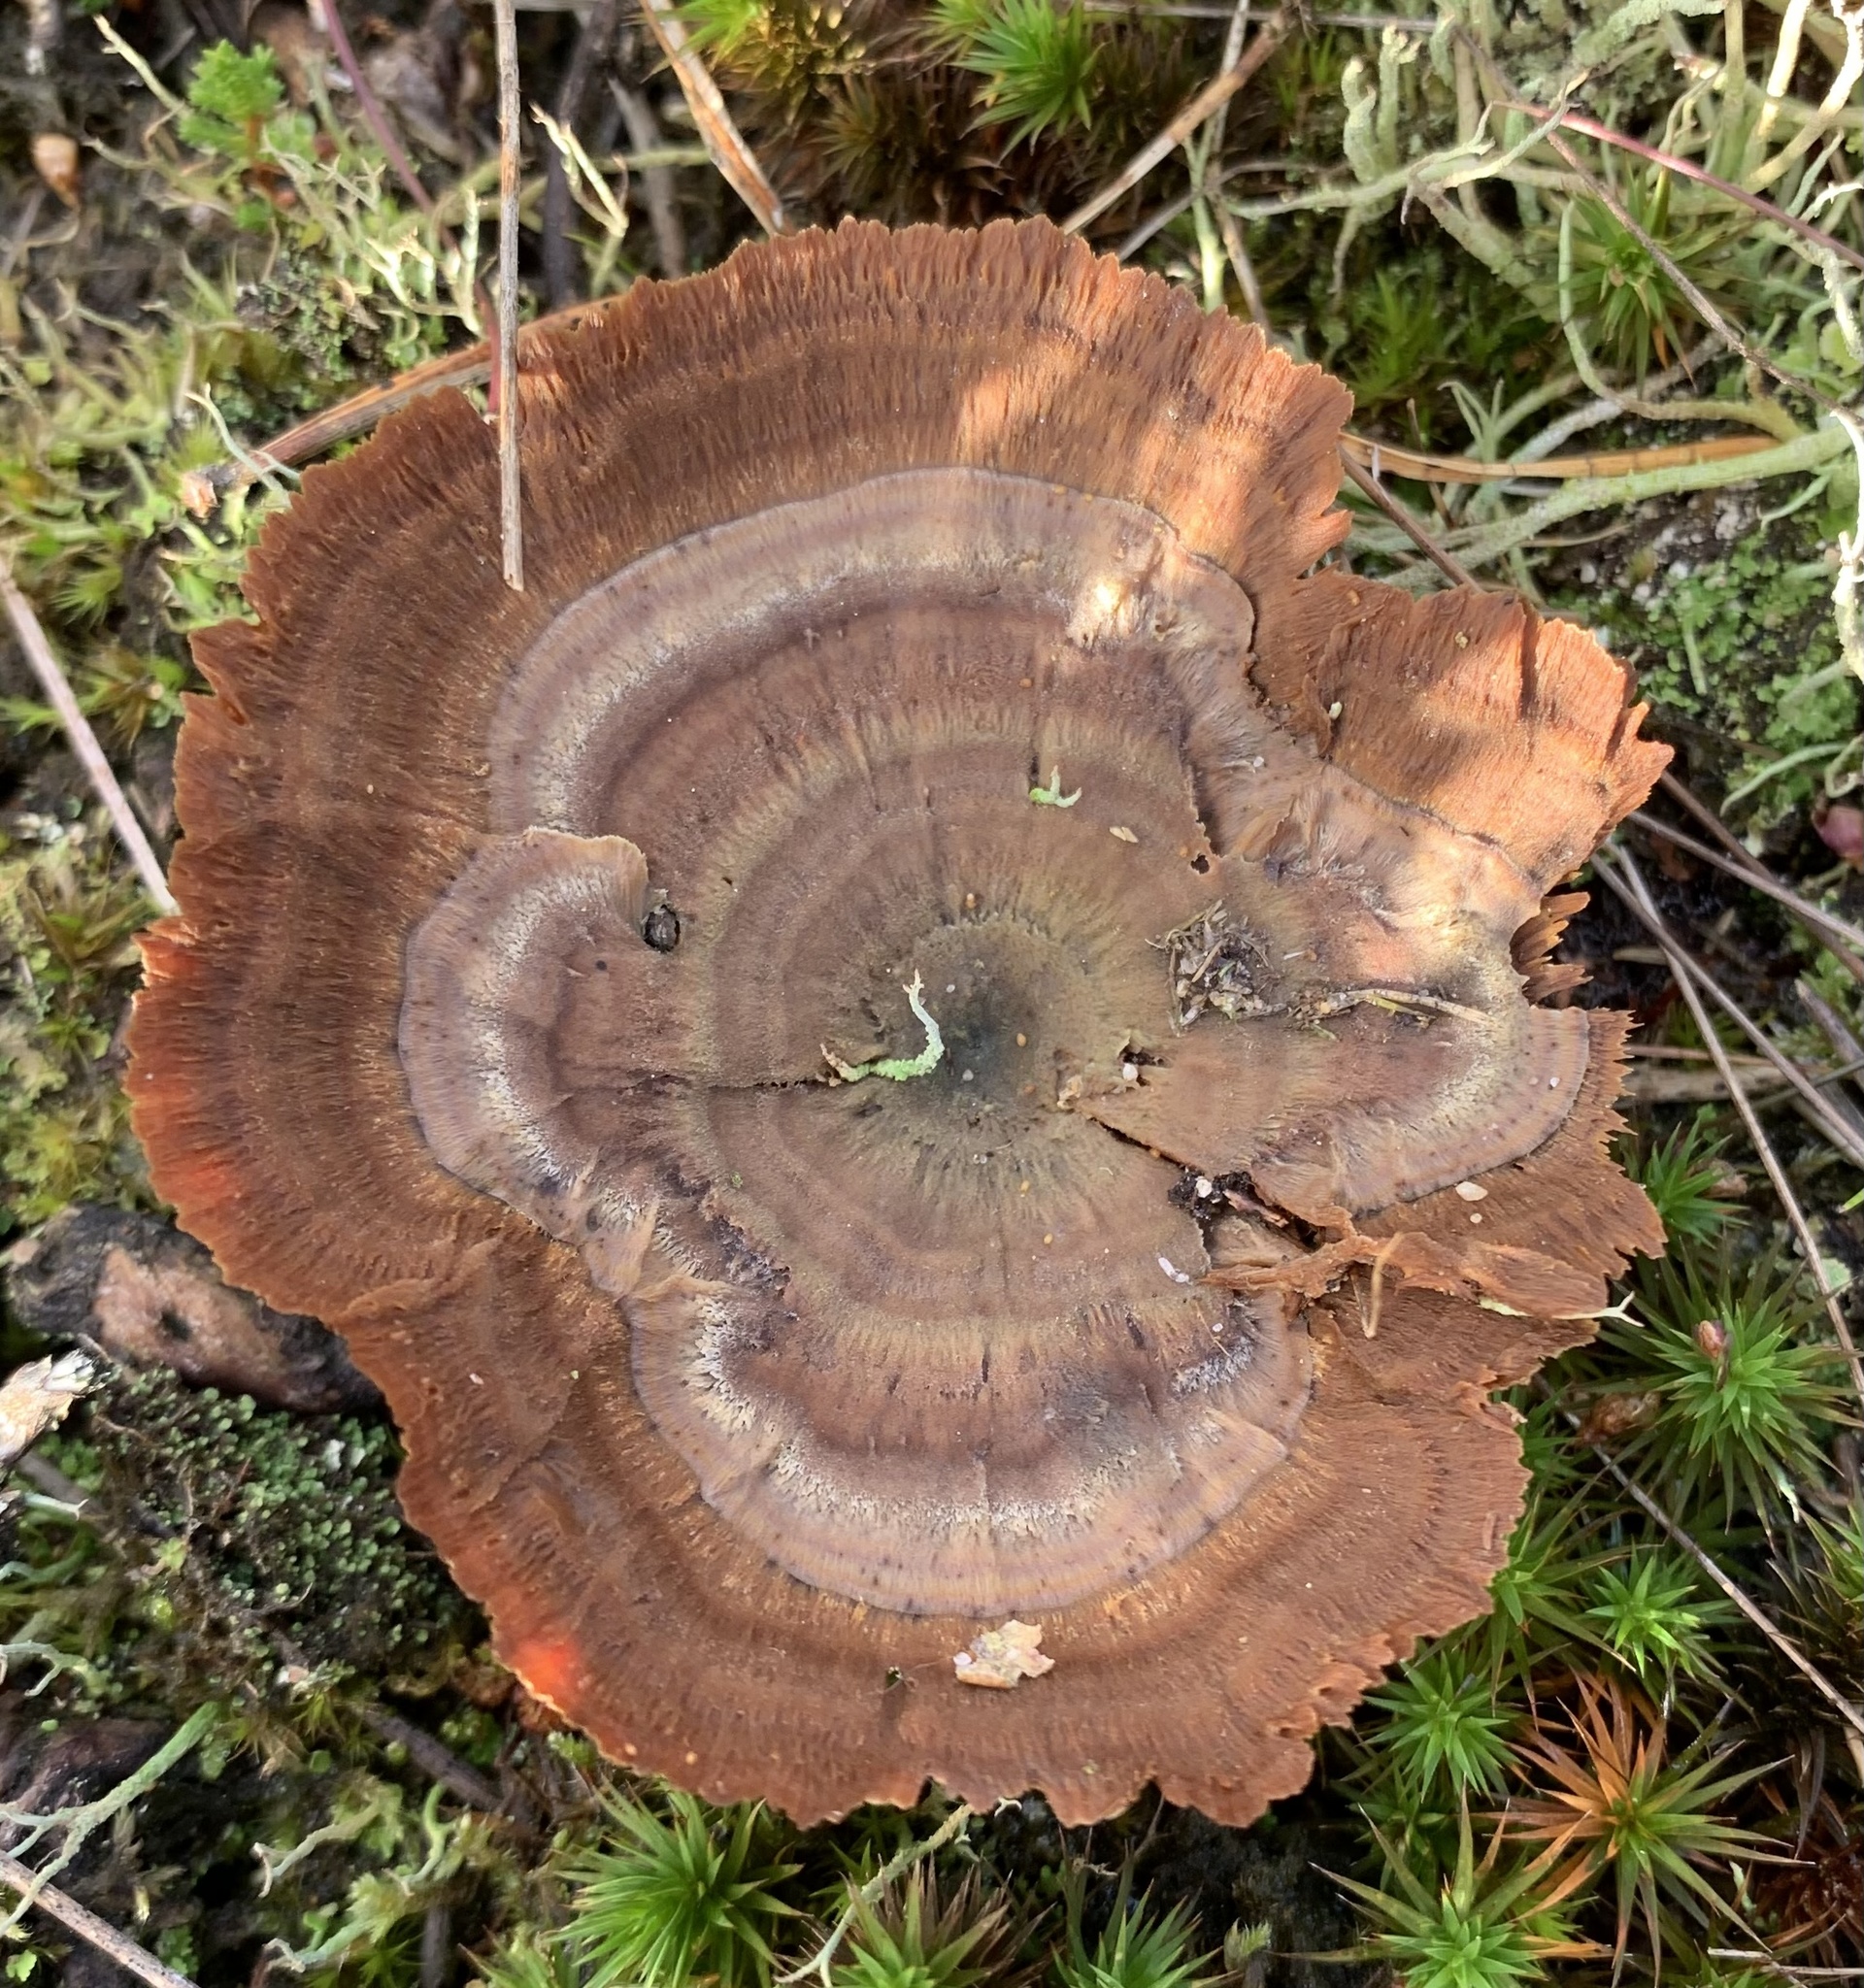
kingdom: Fungi
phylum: Basidiomycota
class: Agaricomycetes
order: Hymenochaetales
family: Hymenochaetaceae
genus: Coltricia
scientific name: Coltricia perennis
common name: Tiger's eye
